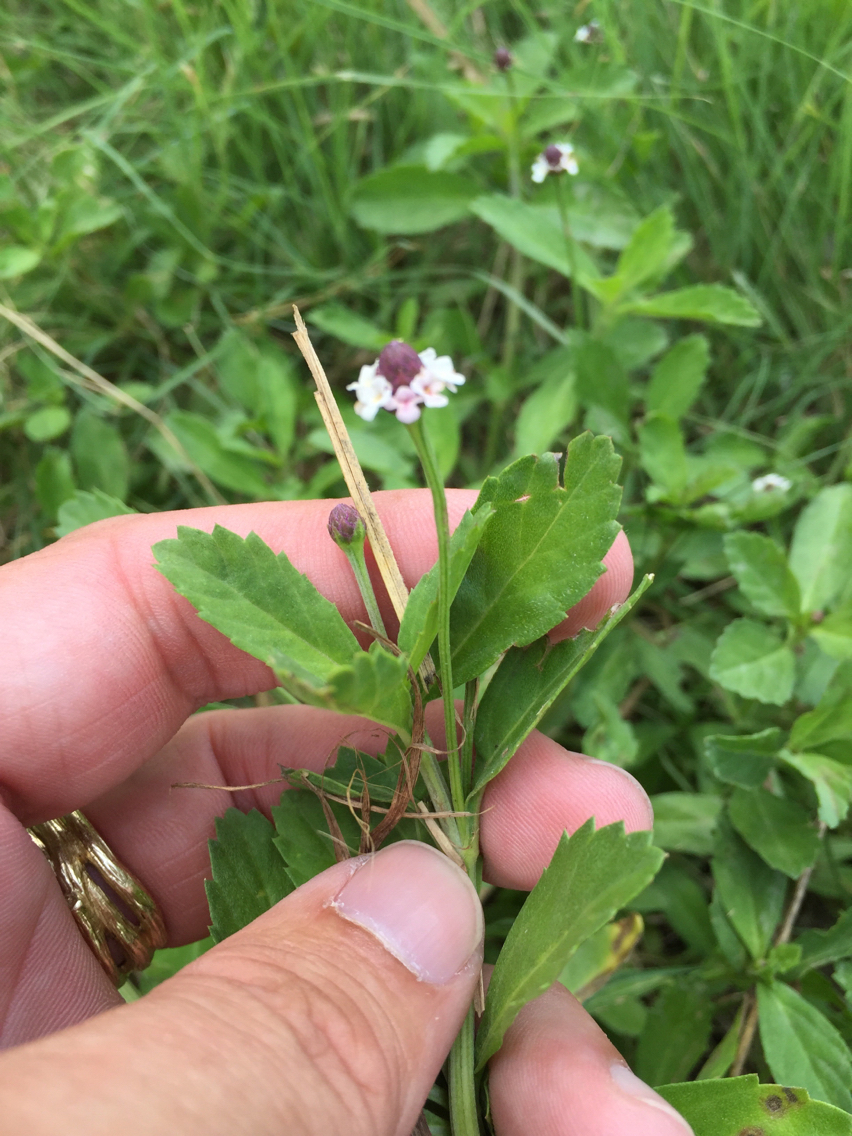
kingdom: Plantae
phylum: Tracheophyta
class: Magnoliopsida
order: Lamiales
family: Verbenaceae
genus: Phyla
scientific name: Phyla nodiflora
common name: Frogfruit
